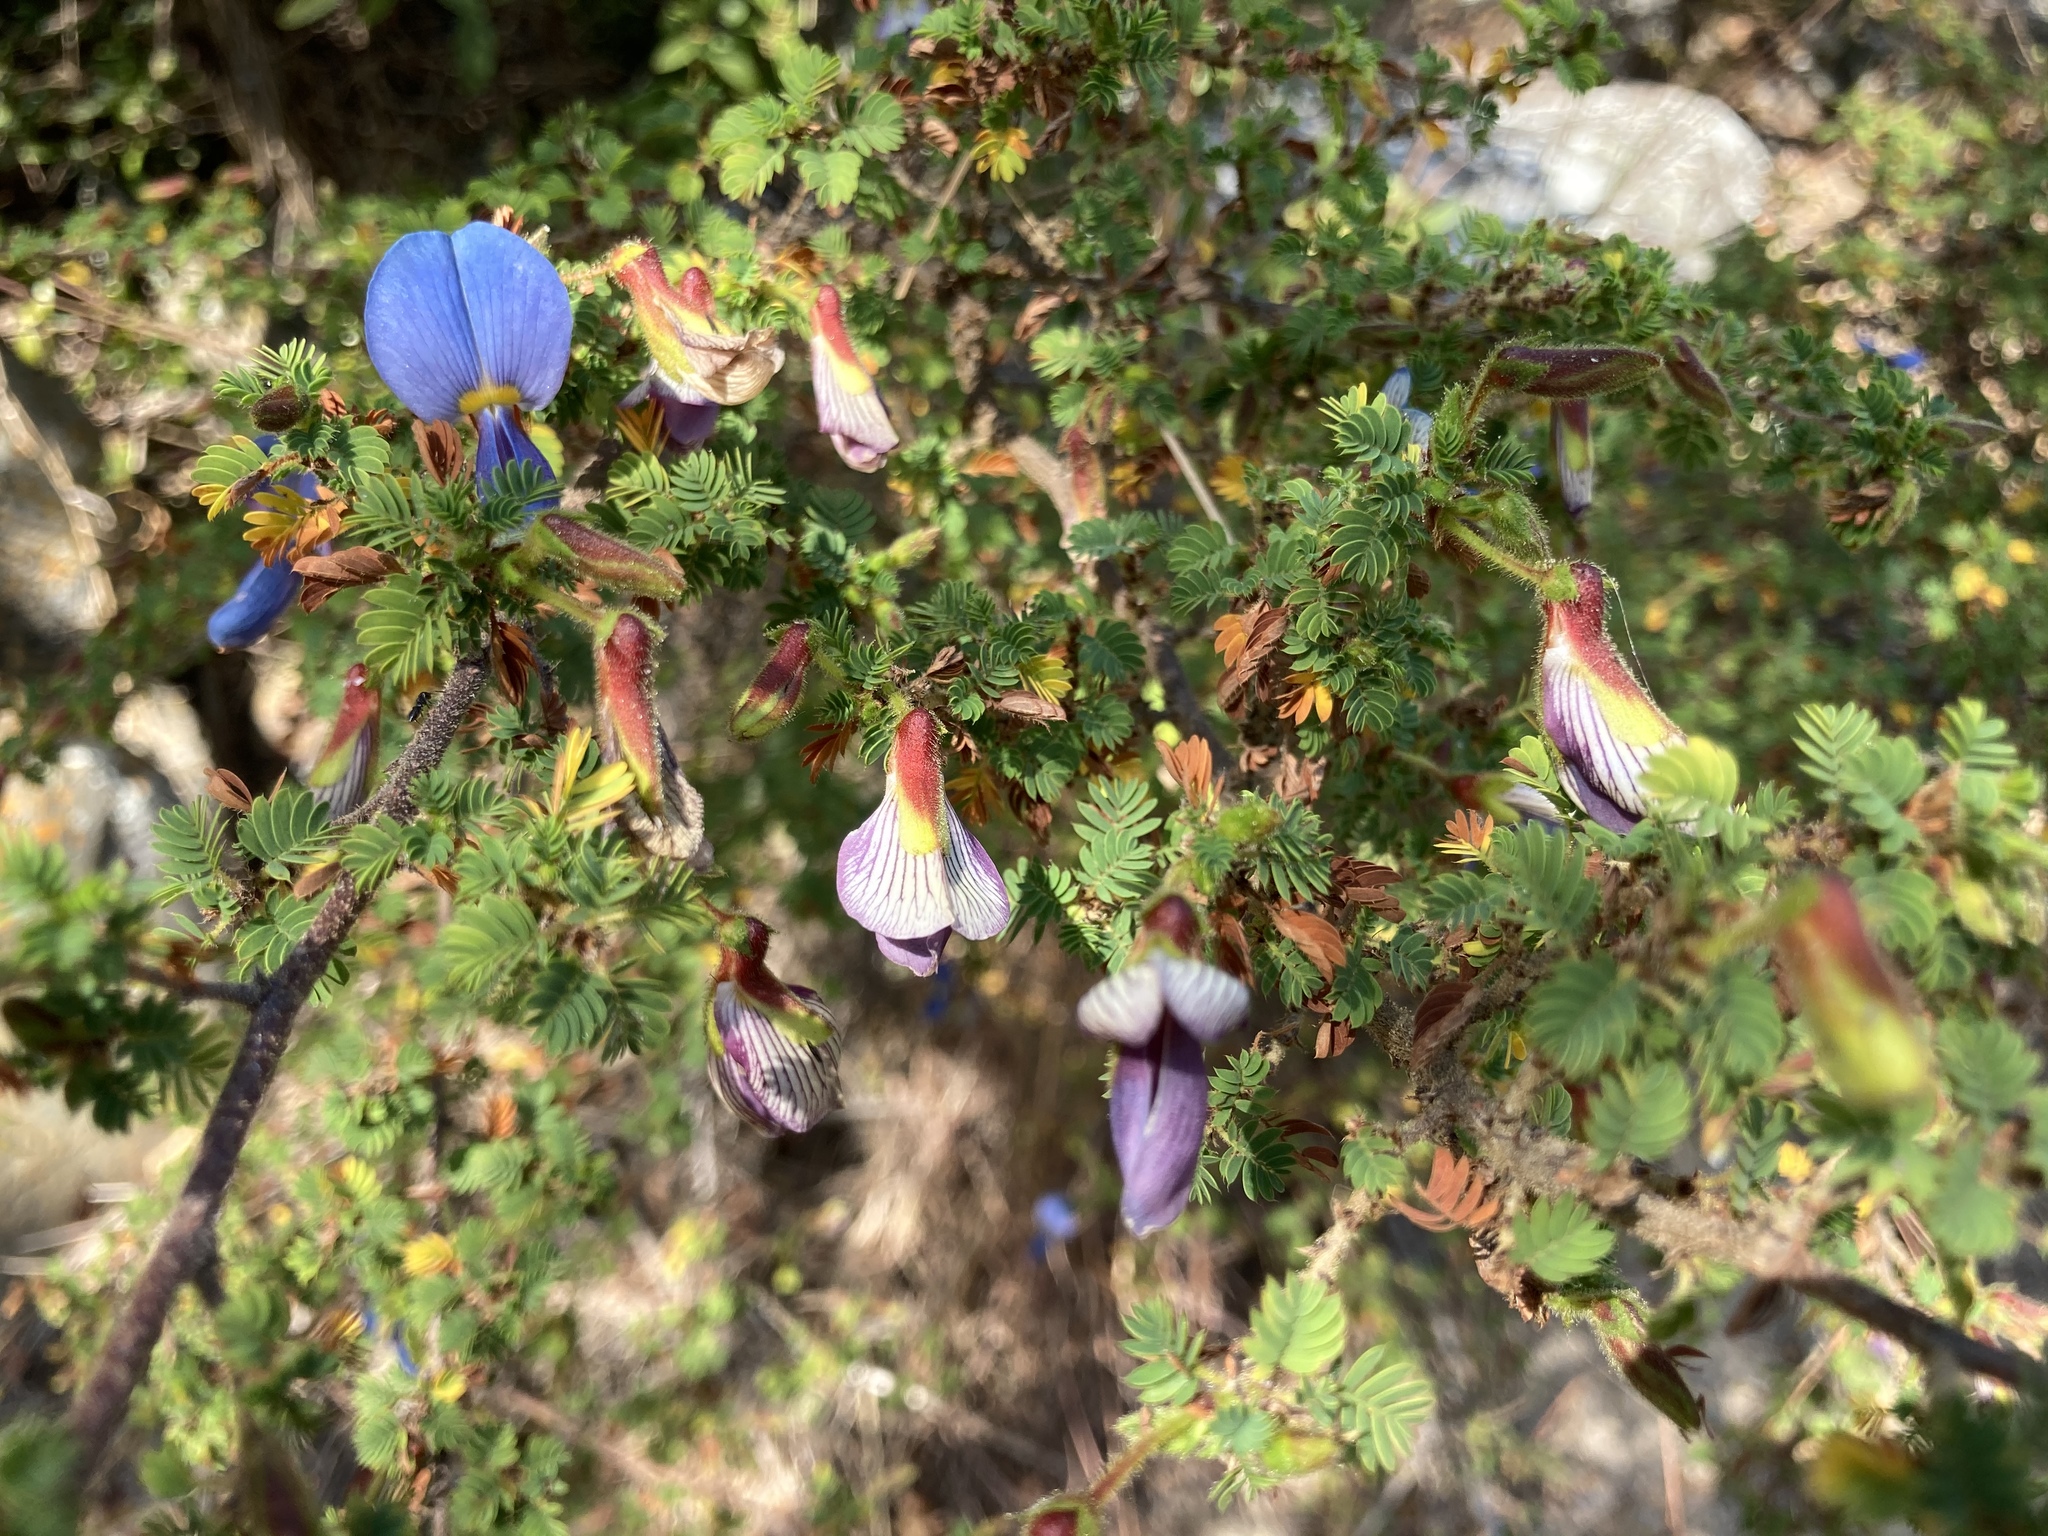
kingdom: Plantae
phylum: Tracheophyta
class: Magnoliopsida
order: Fabales
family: Fabaceae
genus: Kotschya
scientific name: Kotschya parvifolia
